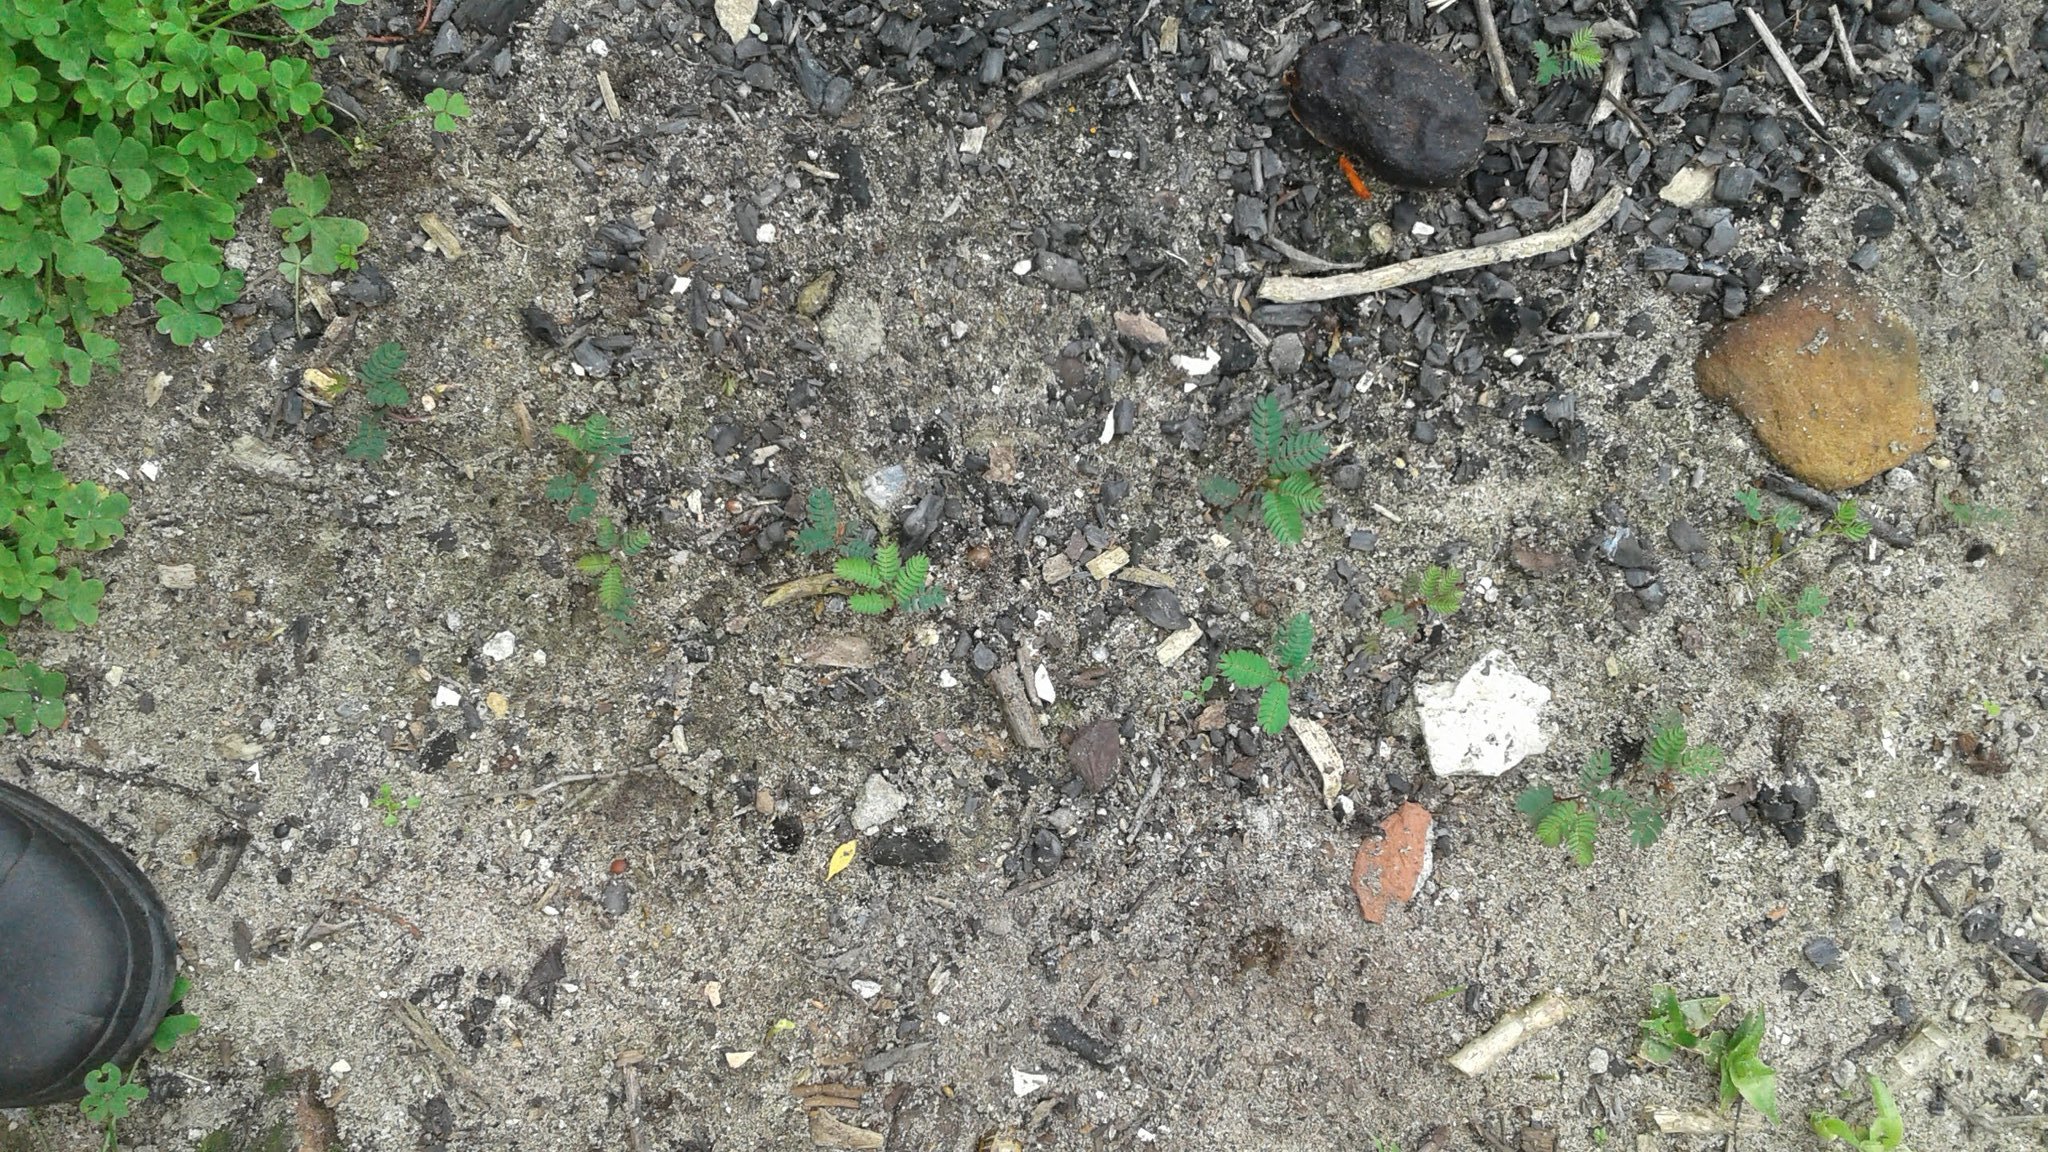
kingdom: Plantae
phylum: Tracheophyta
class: Magnoliopsida
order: Fabales
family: Fabaceae
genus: Paraserianthes
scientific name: Paraserianthes lophantha
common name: Plume albizia
